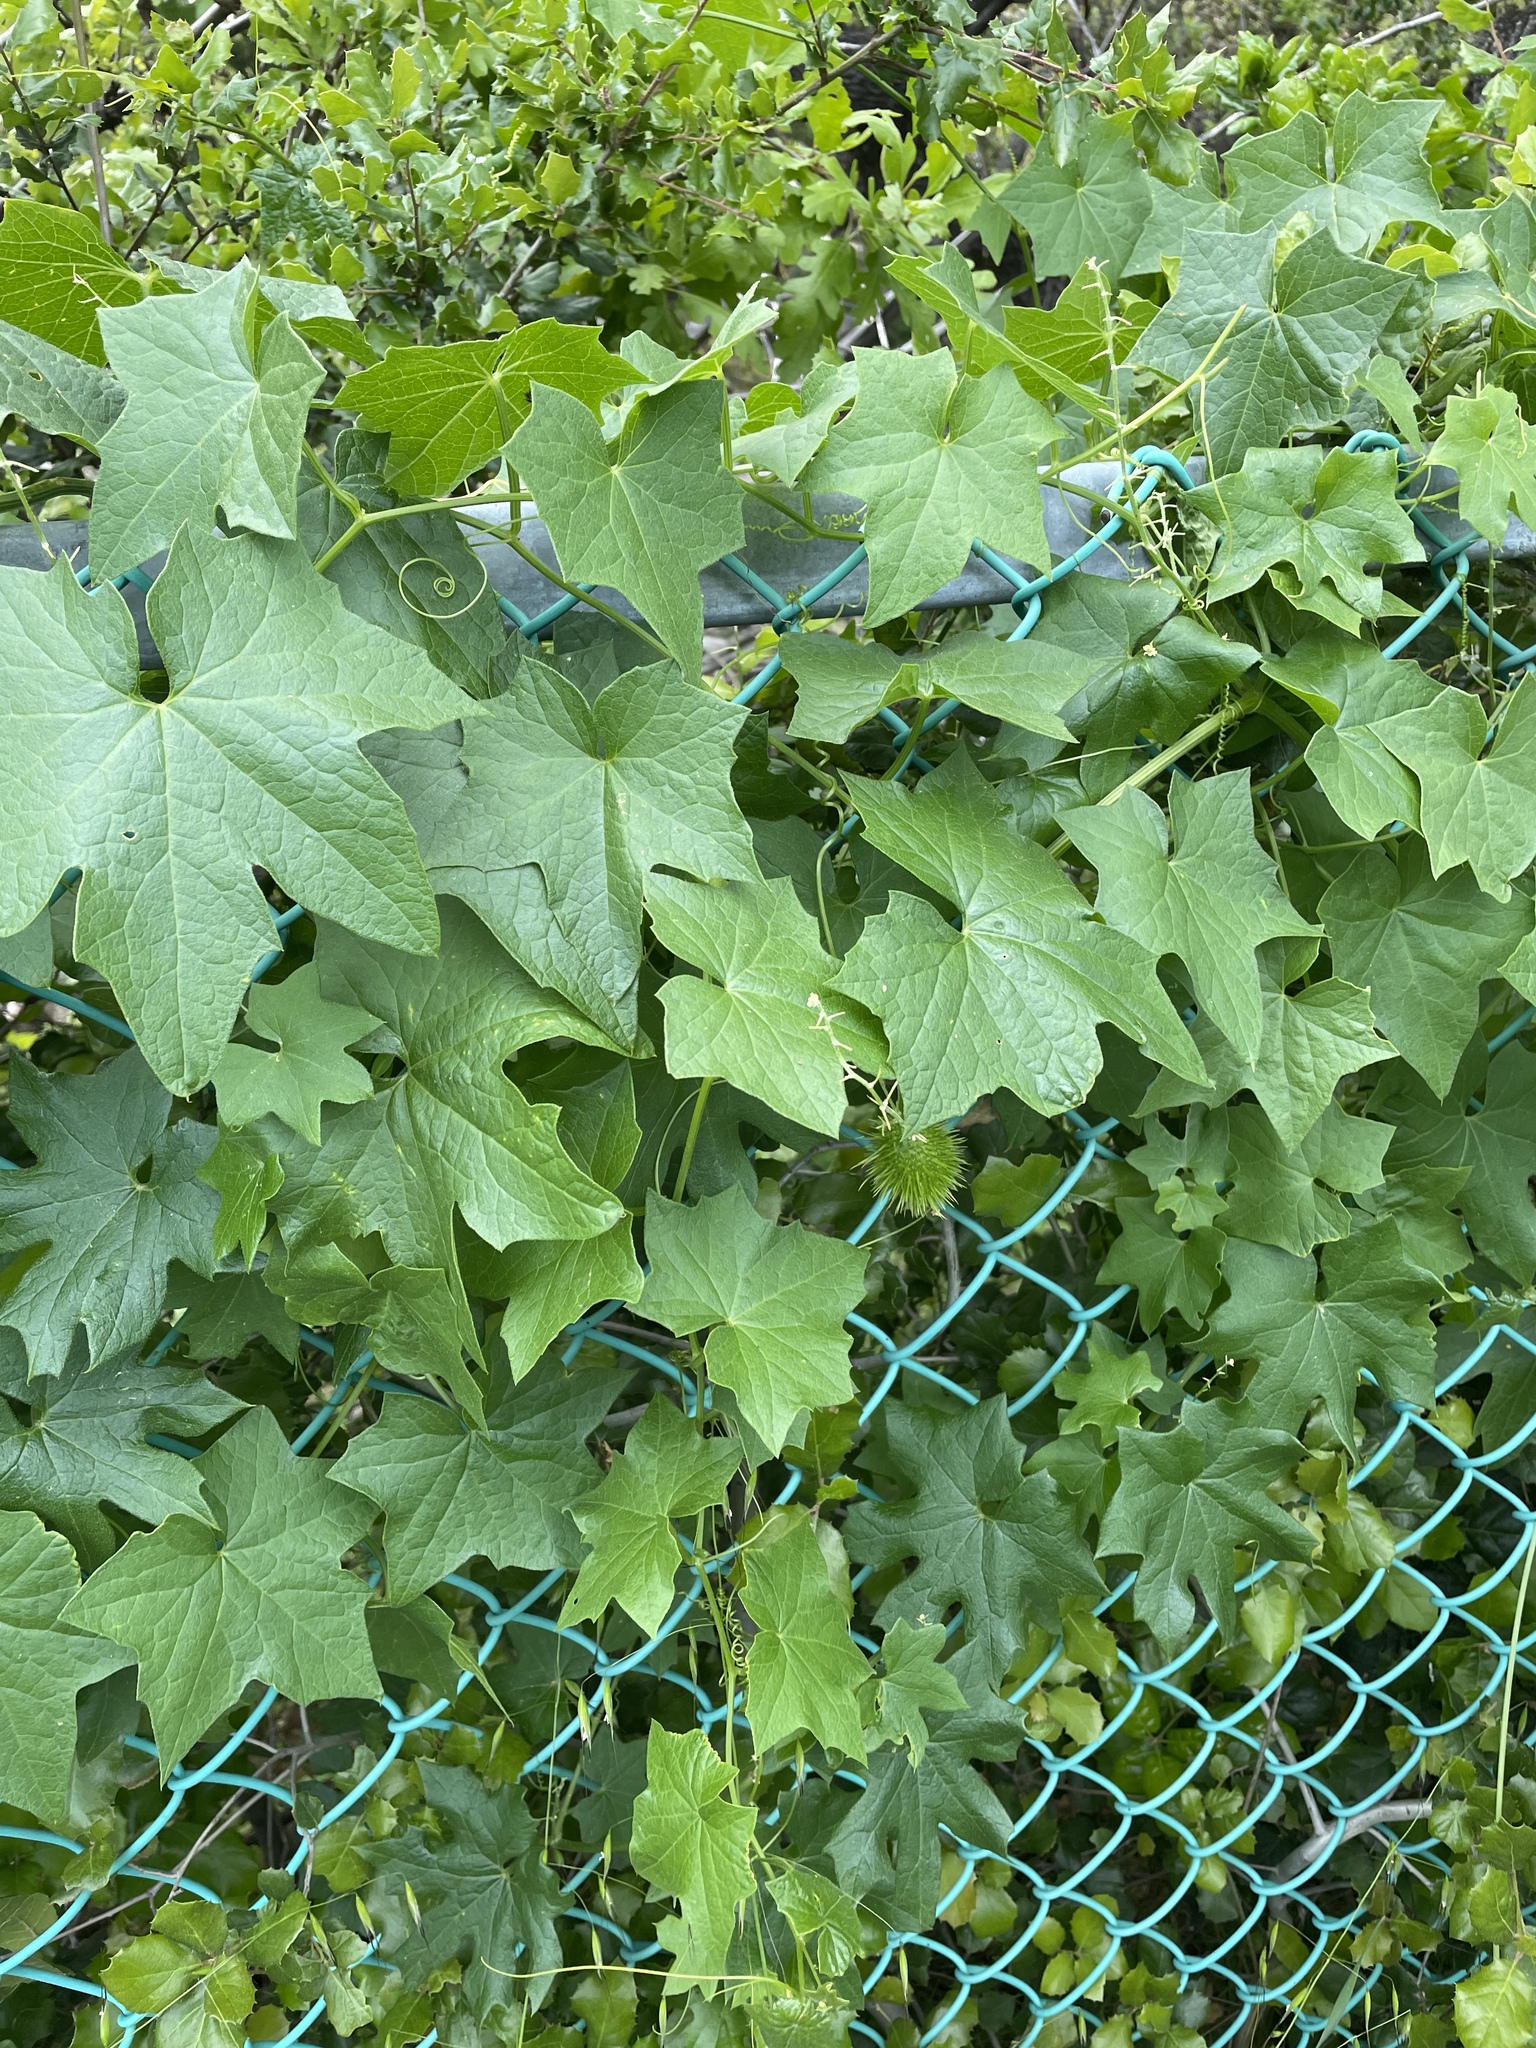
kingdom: Plantae
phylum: Tracheophyta
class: Magnoliopsida
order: Cucurbitales
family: Cucurbitaceae
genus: Marah
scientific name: Marah fabacea
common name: California manroot
